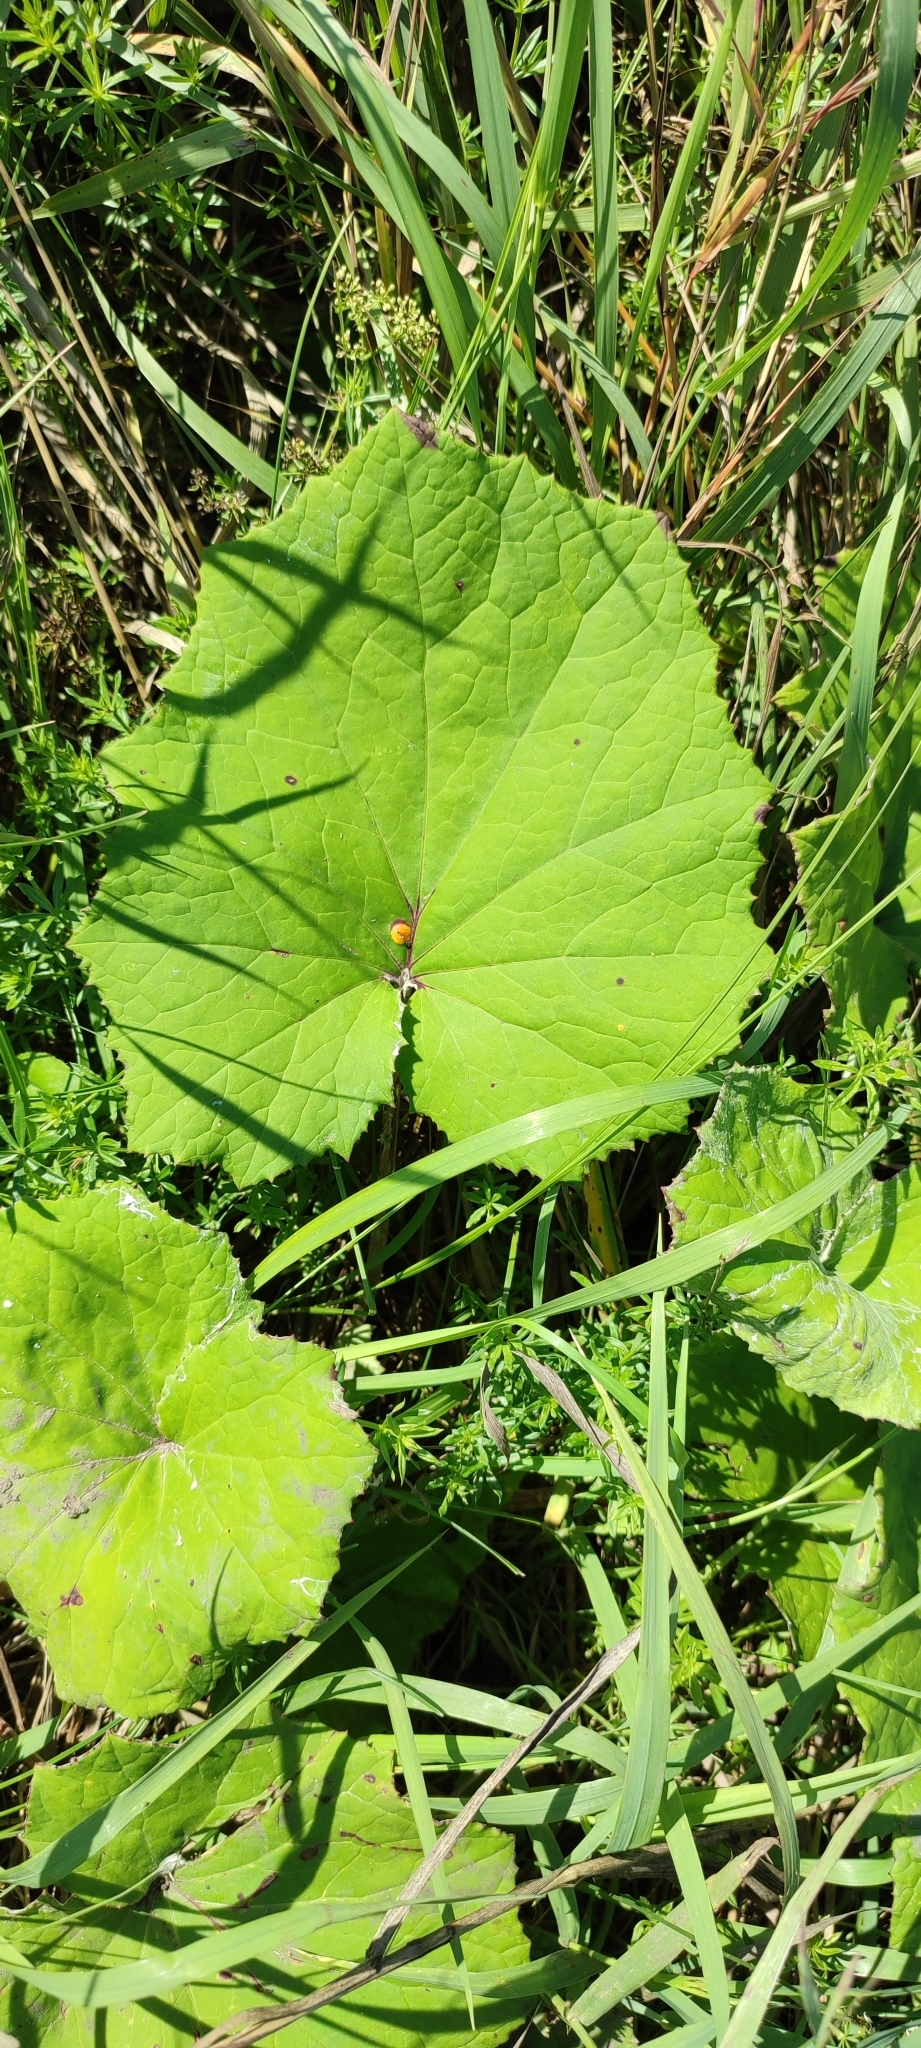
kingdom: Plantae
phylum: Tracheophyta
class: Magnoliopsida
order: Asterales
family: Asteraceae
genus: Tussilago
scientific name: Tussilago farfara
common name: Coltsfoot
